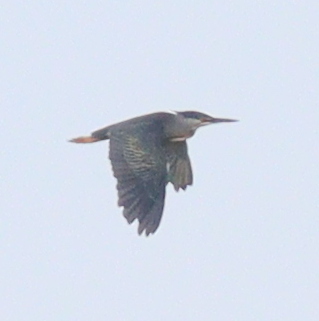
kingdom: Animalia
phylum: Chordata
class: Aves
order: Pelecaniformes
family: Ardeidae
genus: Butorides
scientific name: Butorides striata
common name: Striated heron
